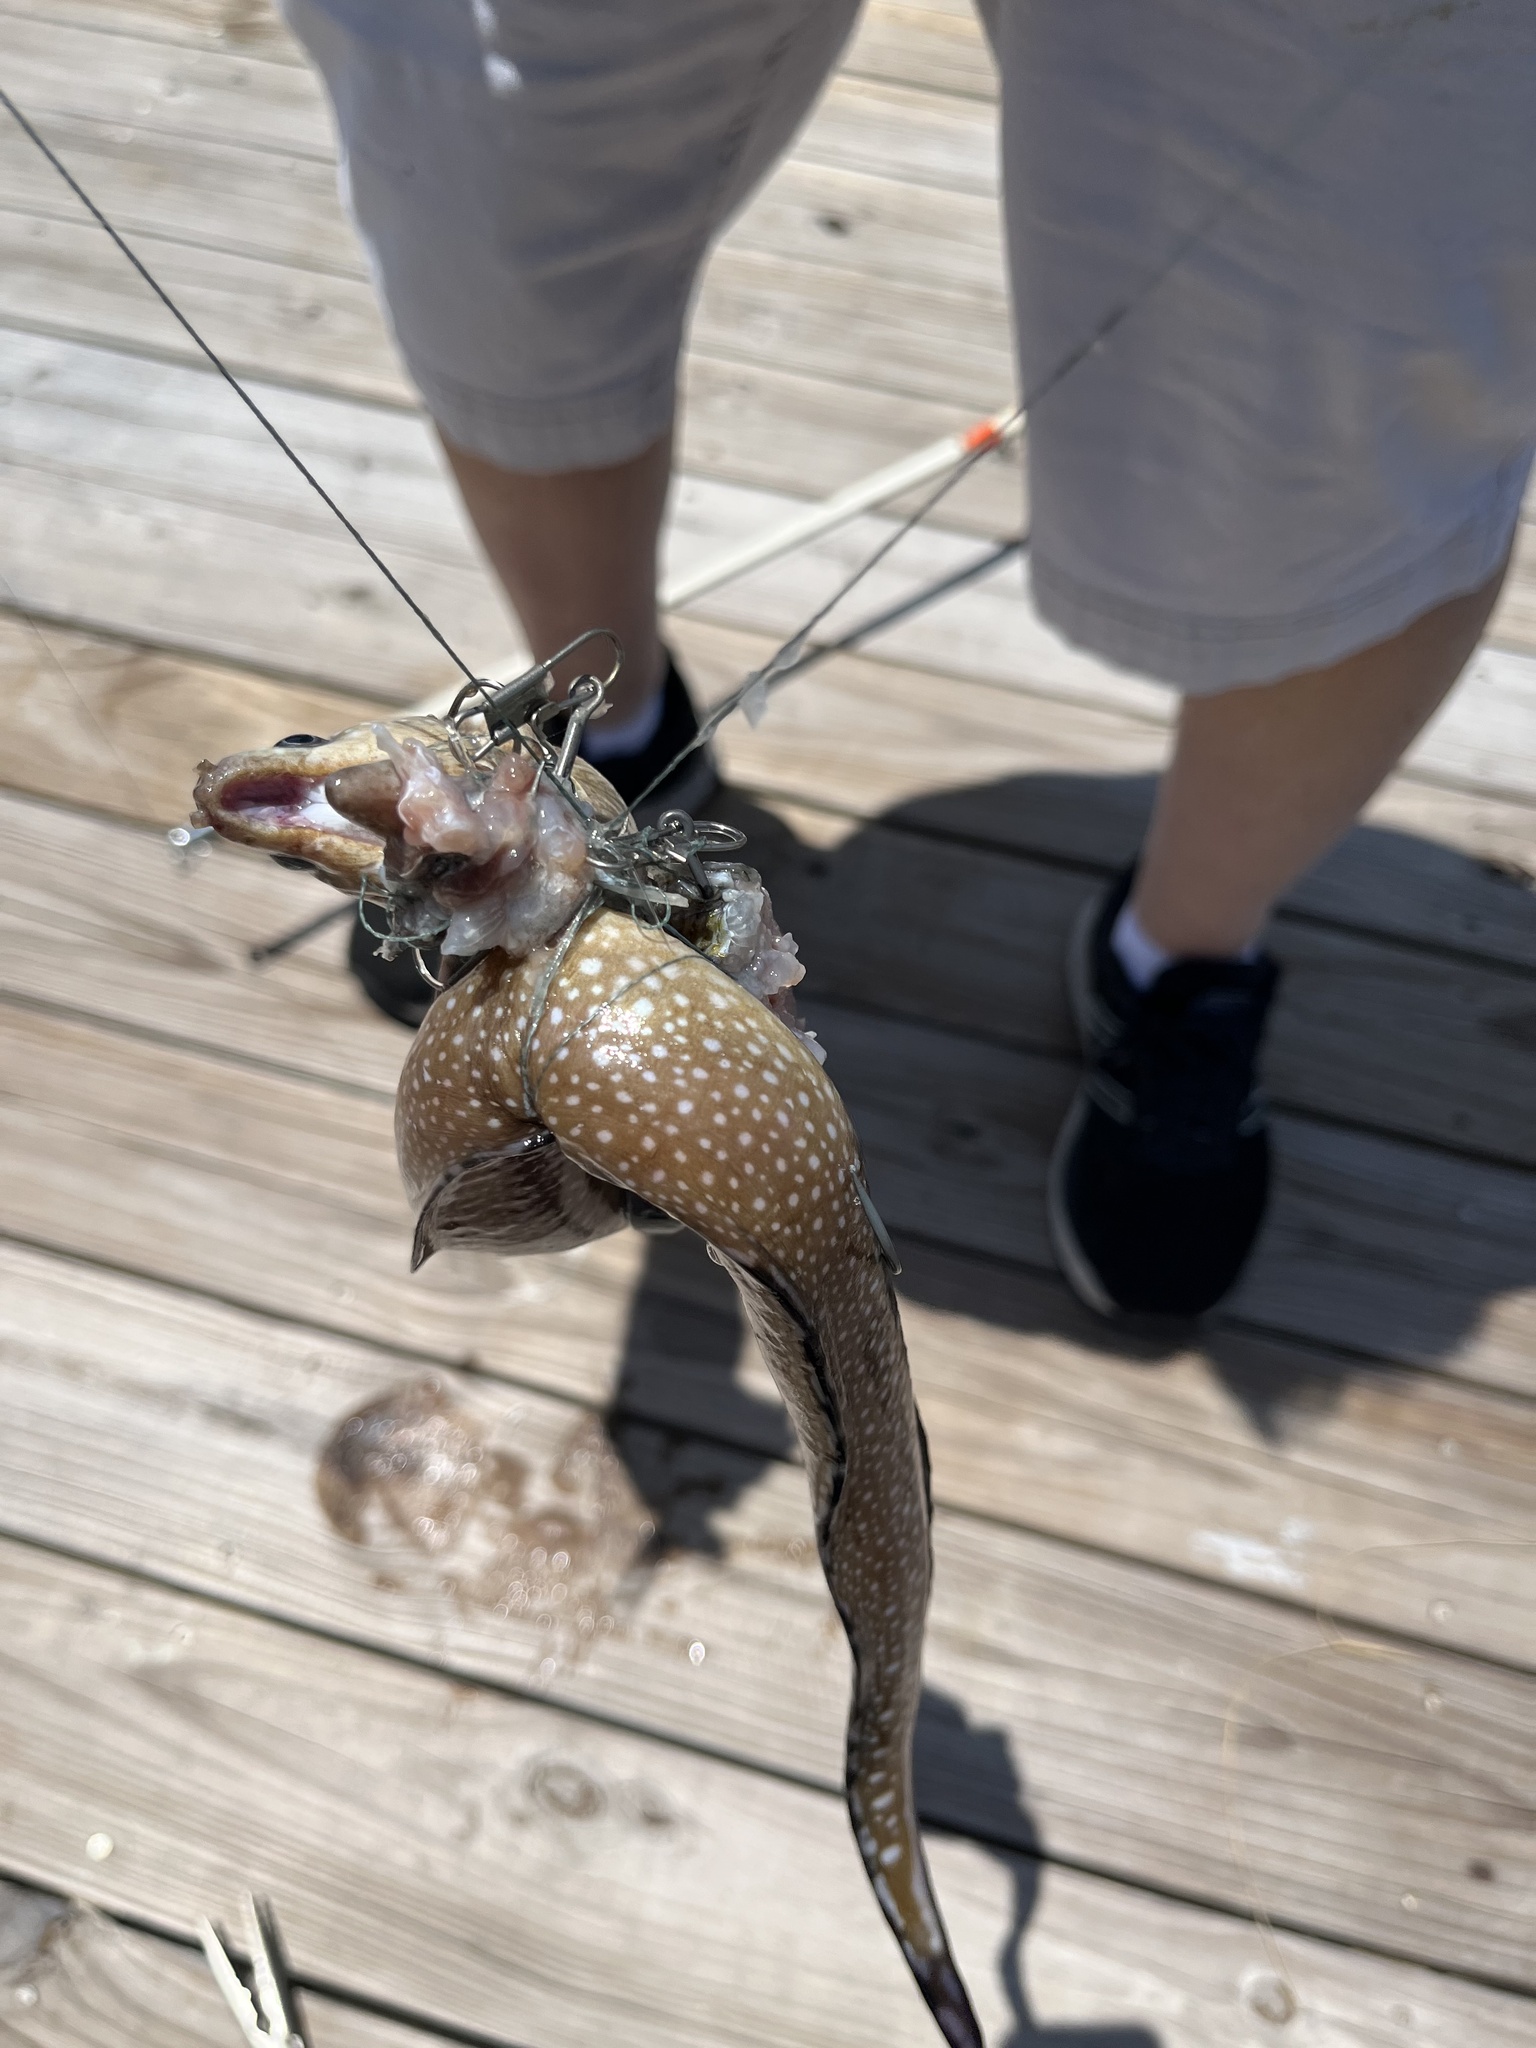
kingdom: Animalia
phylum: Chordata
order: Anguilliformes
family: Muraenidae
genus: Gymnothorax
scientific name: Gymnothorax nigromarginatus
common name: Blackedge moray
